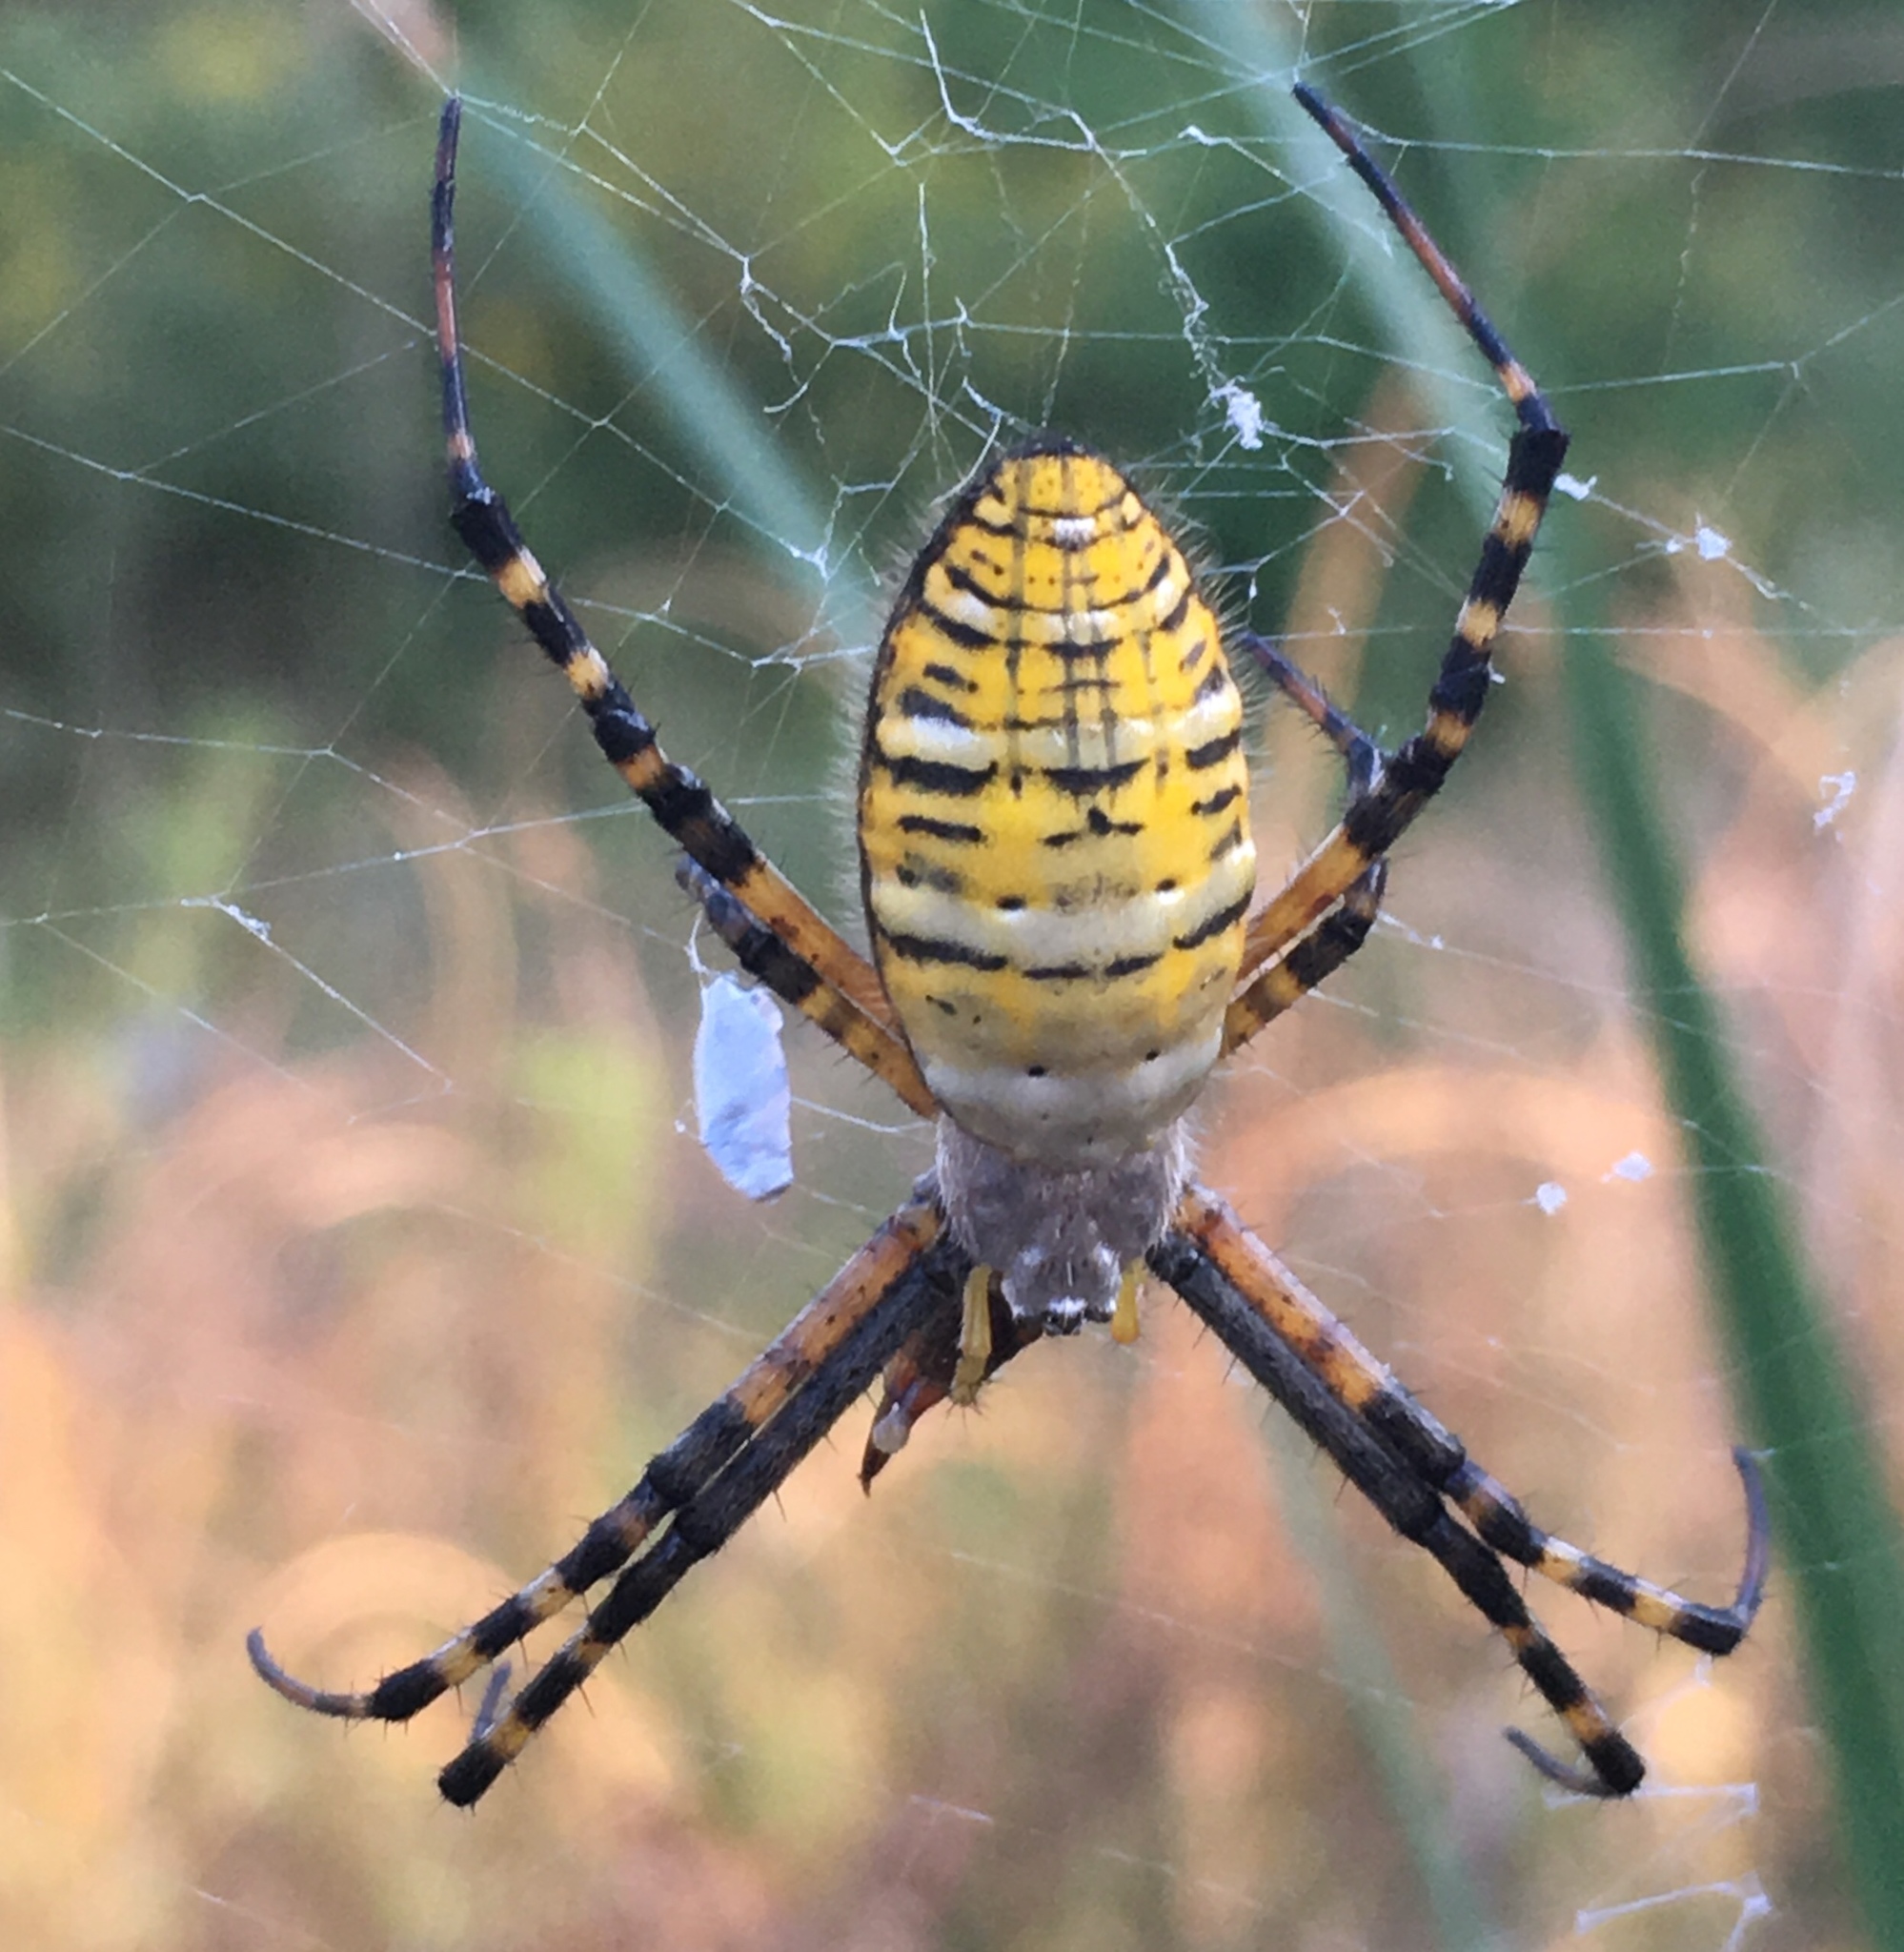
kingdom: Animalia
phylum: Arthropoda
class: Arachnida
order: Araneae
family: Araneidae
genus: Argiope
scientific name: Argiope trifasciata
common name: Banded garden spider
